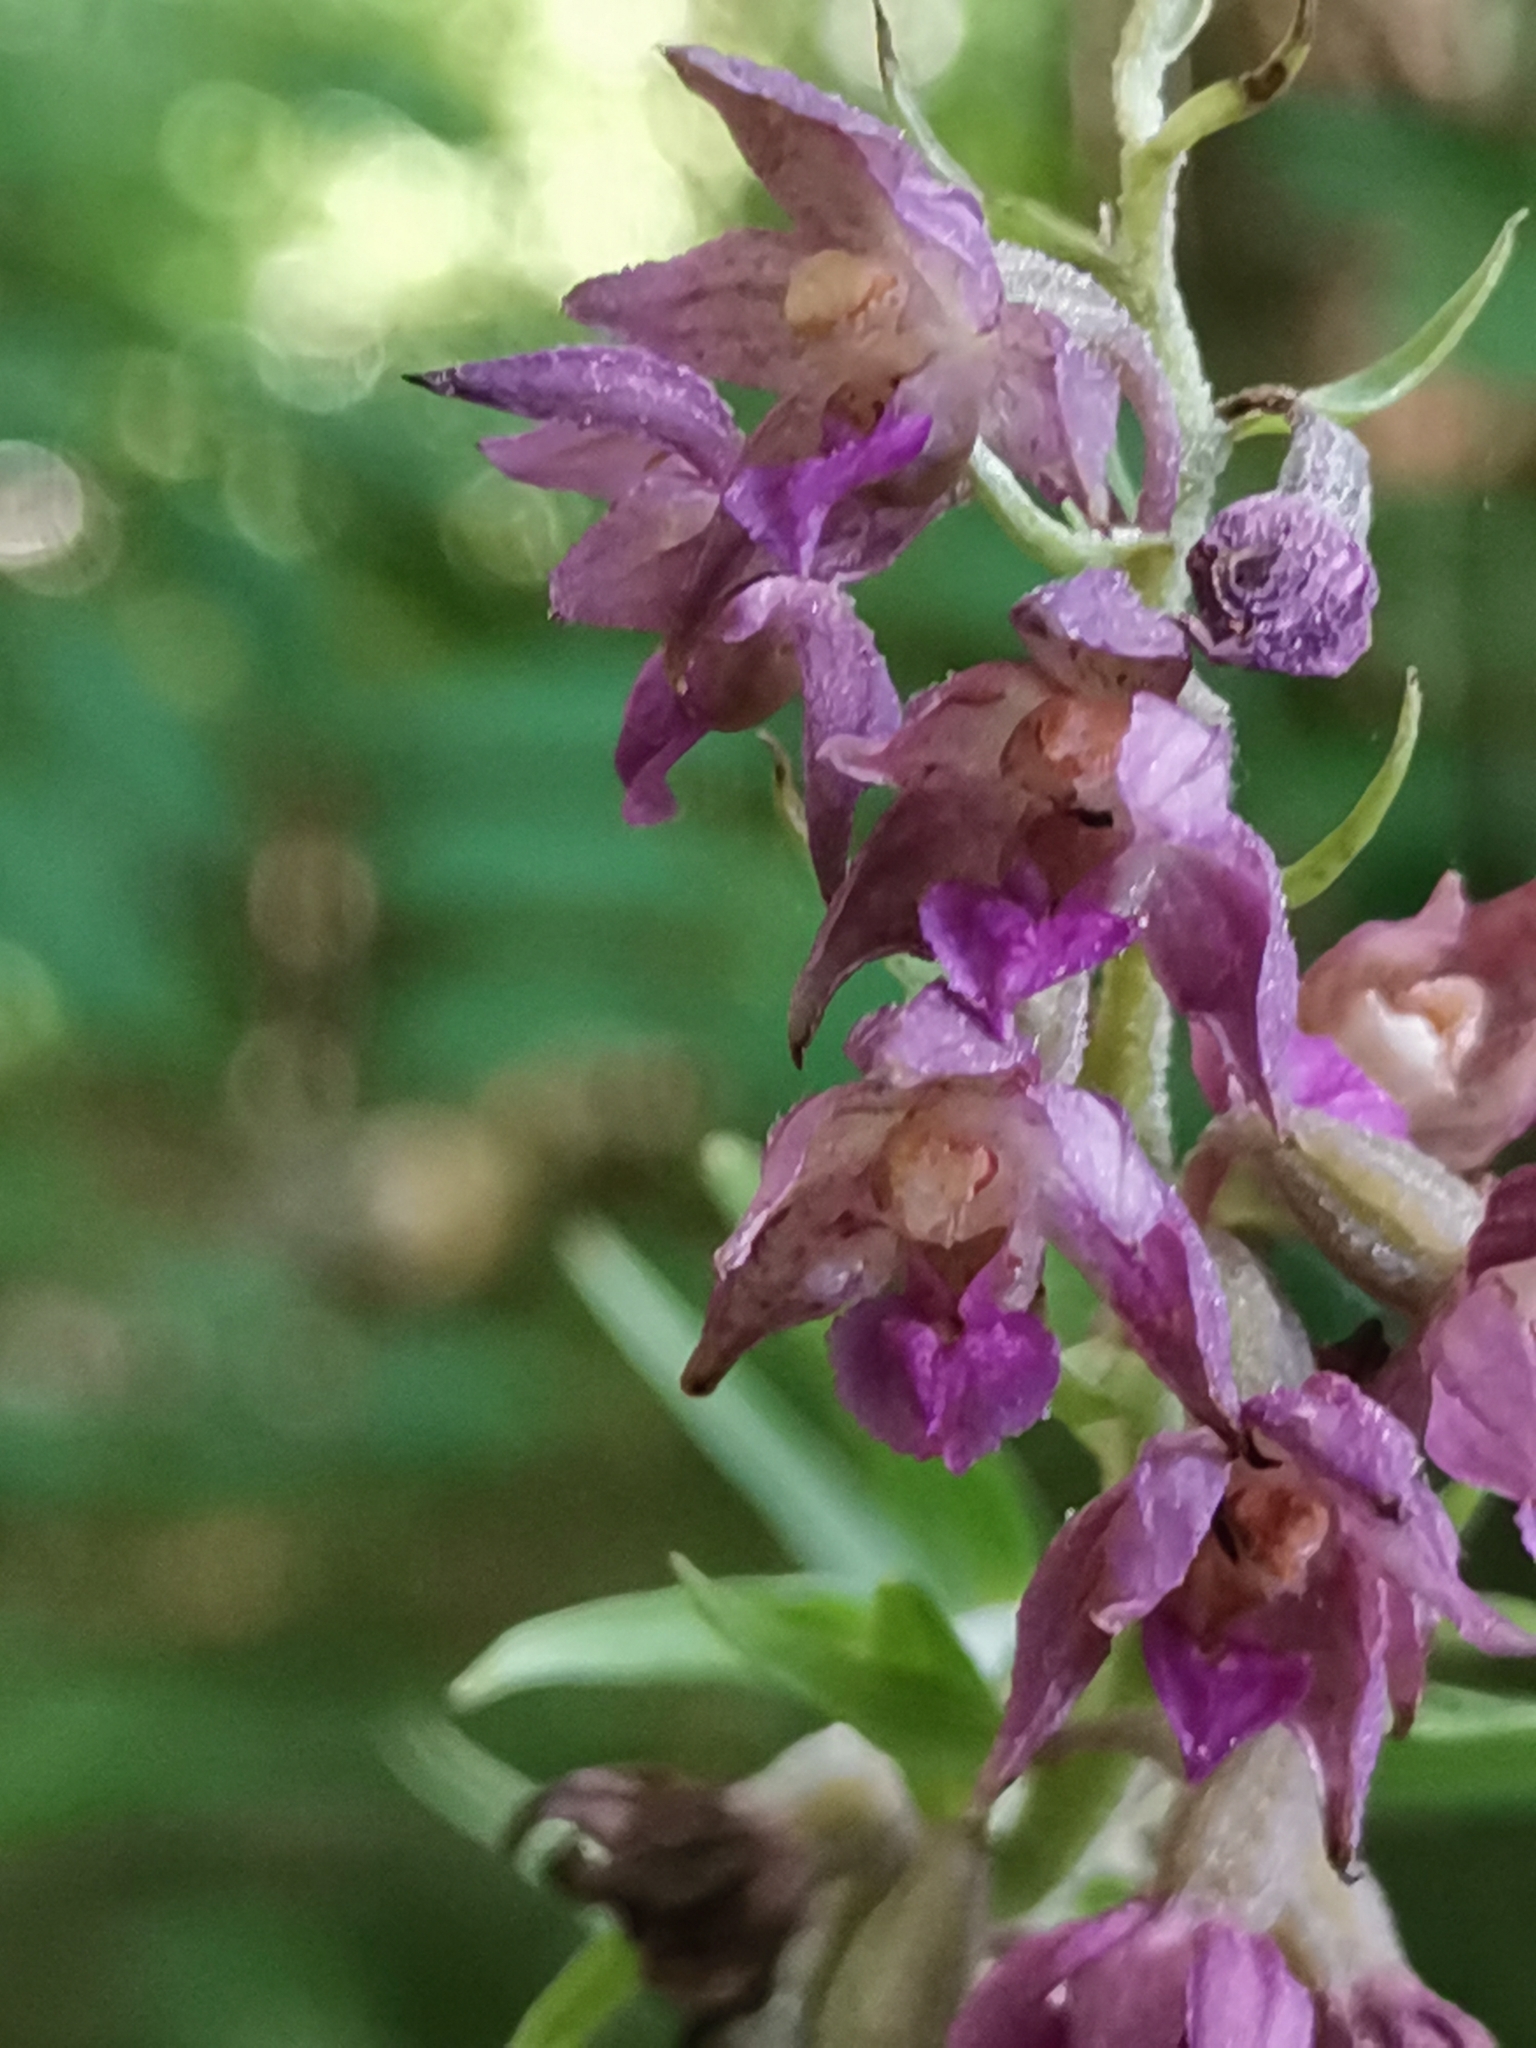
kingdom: Plantae
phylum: Tracheophyta
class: Liliopsida
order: Asparagales
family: Orchidaceae
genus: Epipactis
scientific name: Epipactis atrorubens
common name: Dark-red helleborine
